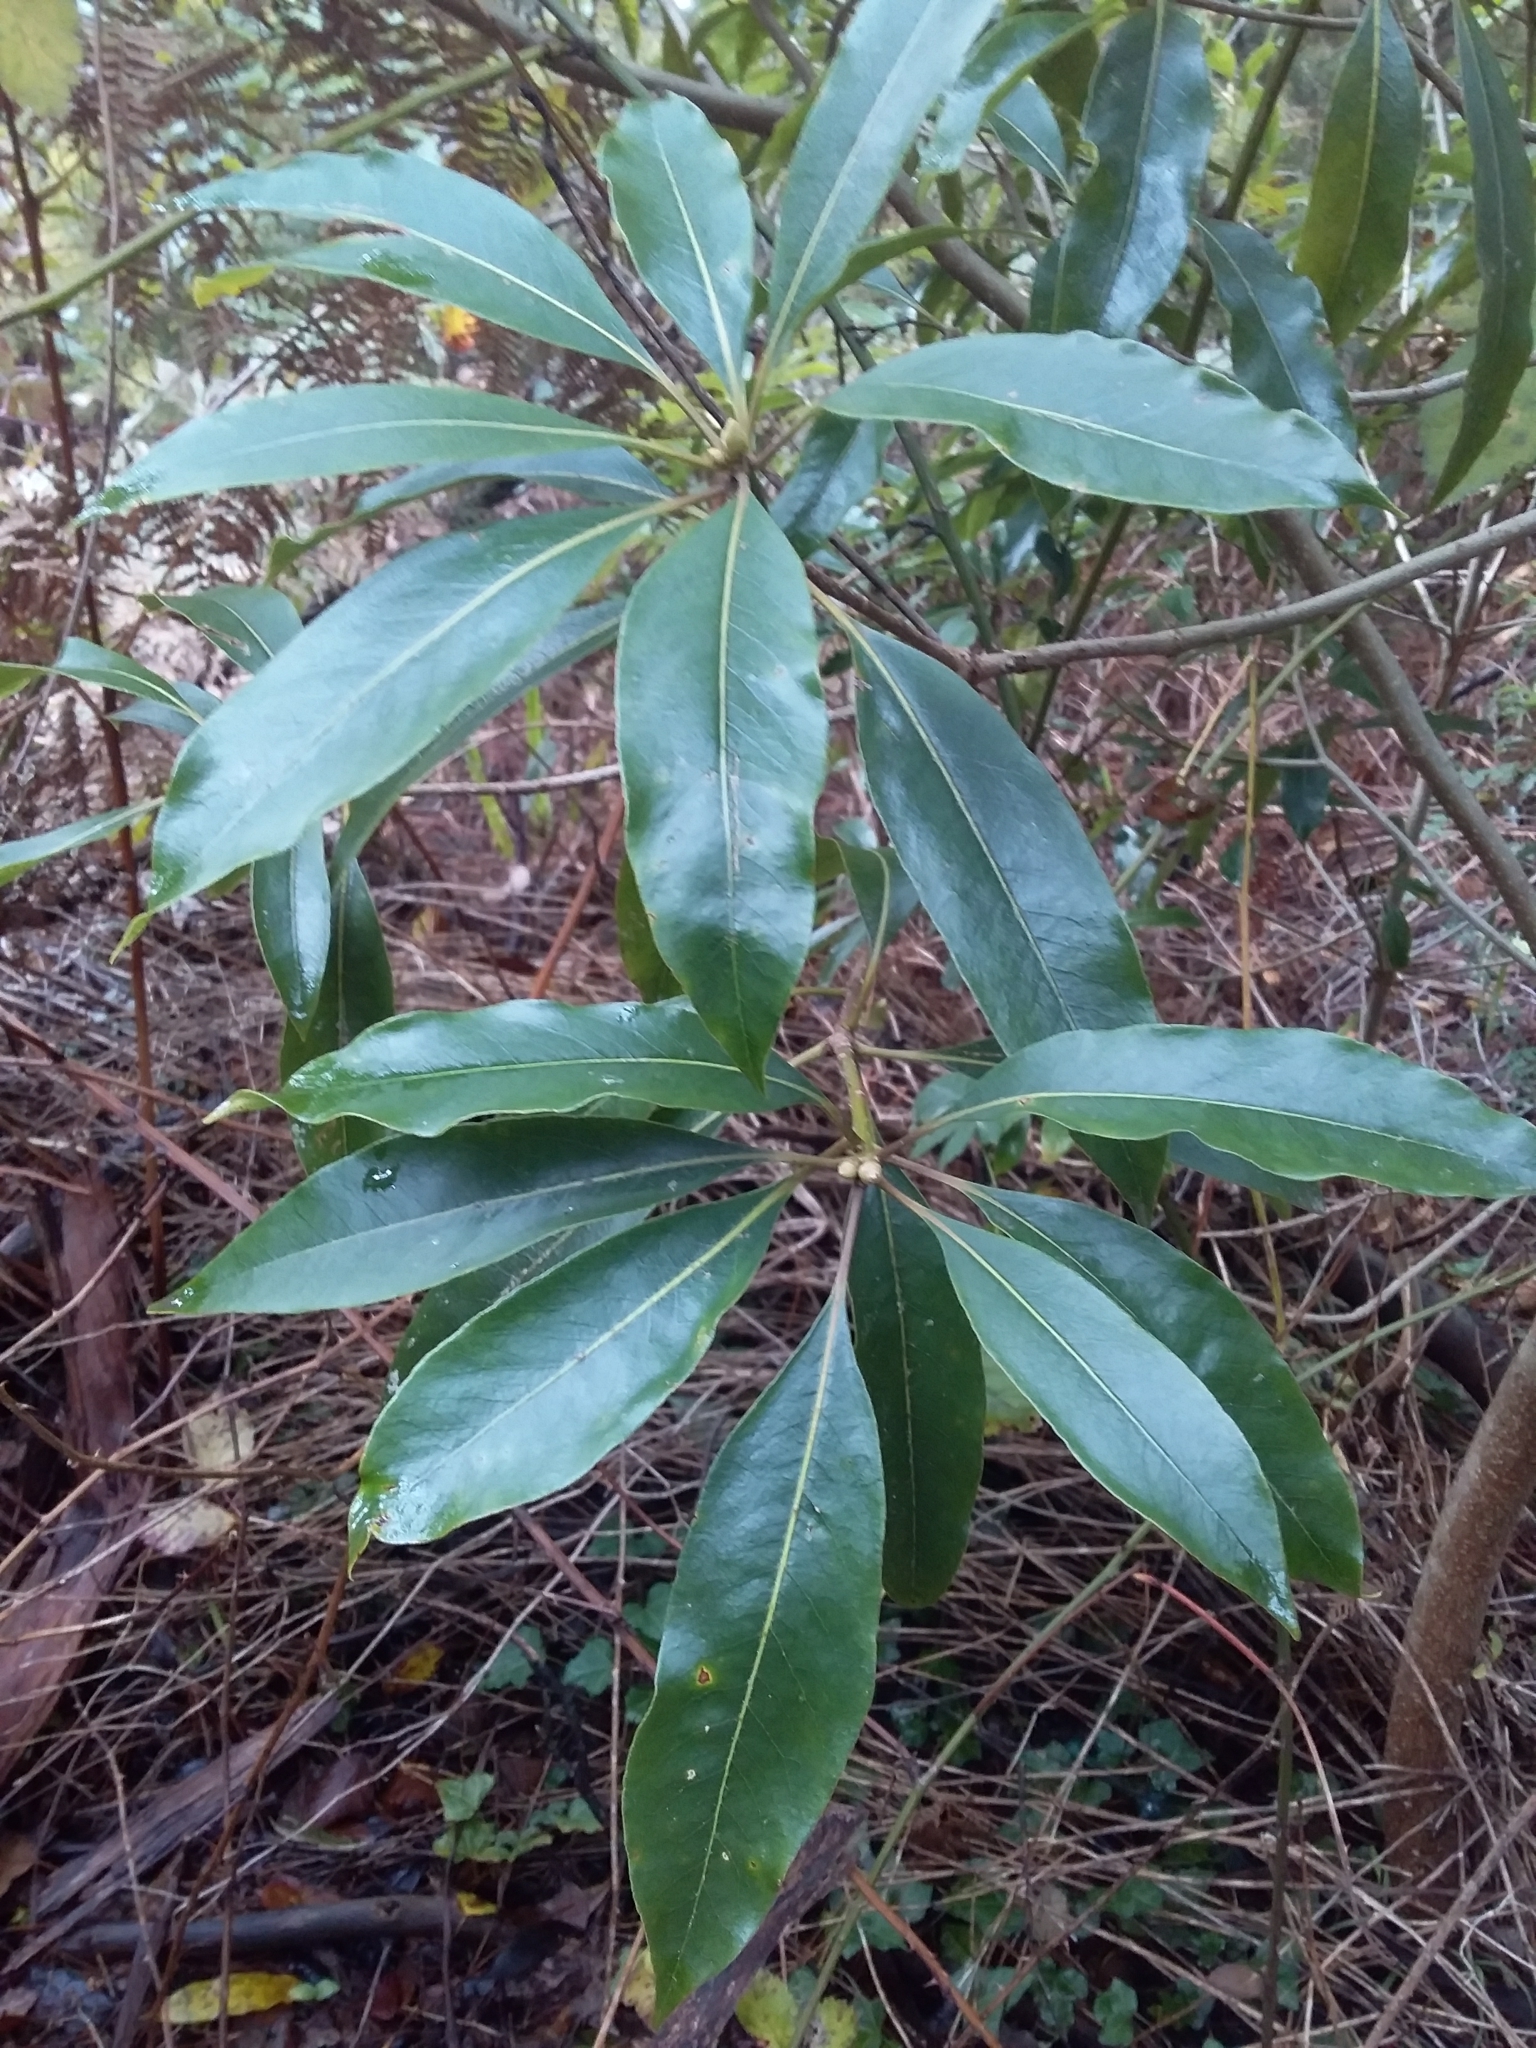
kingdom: Plantae
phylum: Tracheophyta
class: Magnoliopsida
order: Apiales
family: Pittosporaceae
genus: Pittosporum
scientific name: Pittosporum undulatum
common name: Australian cheesewood
